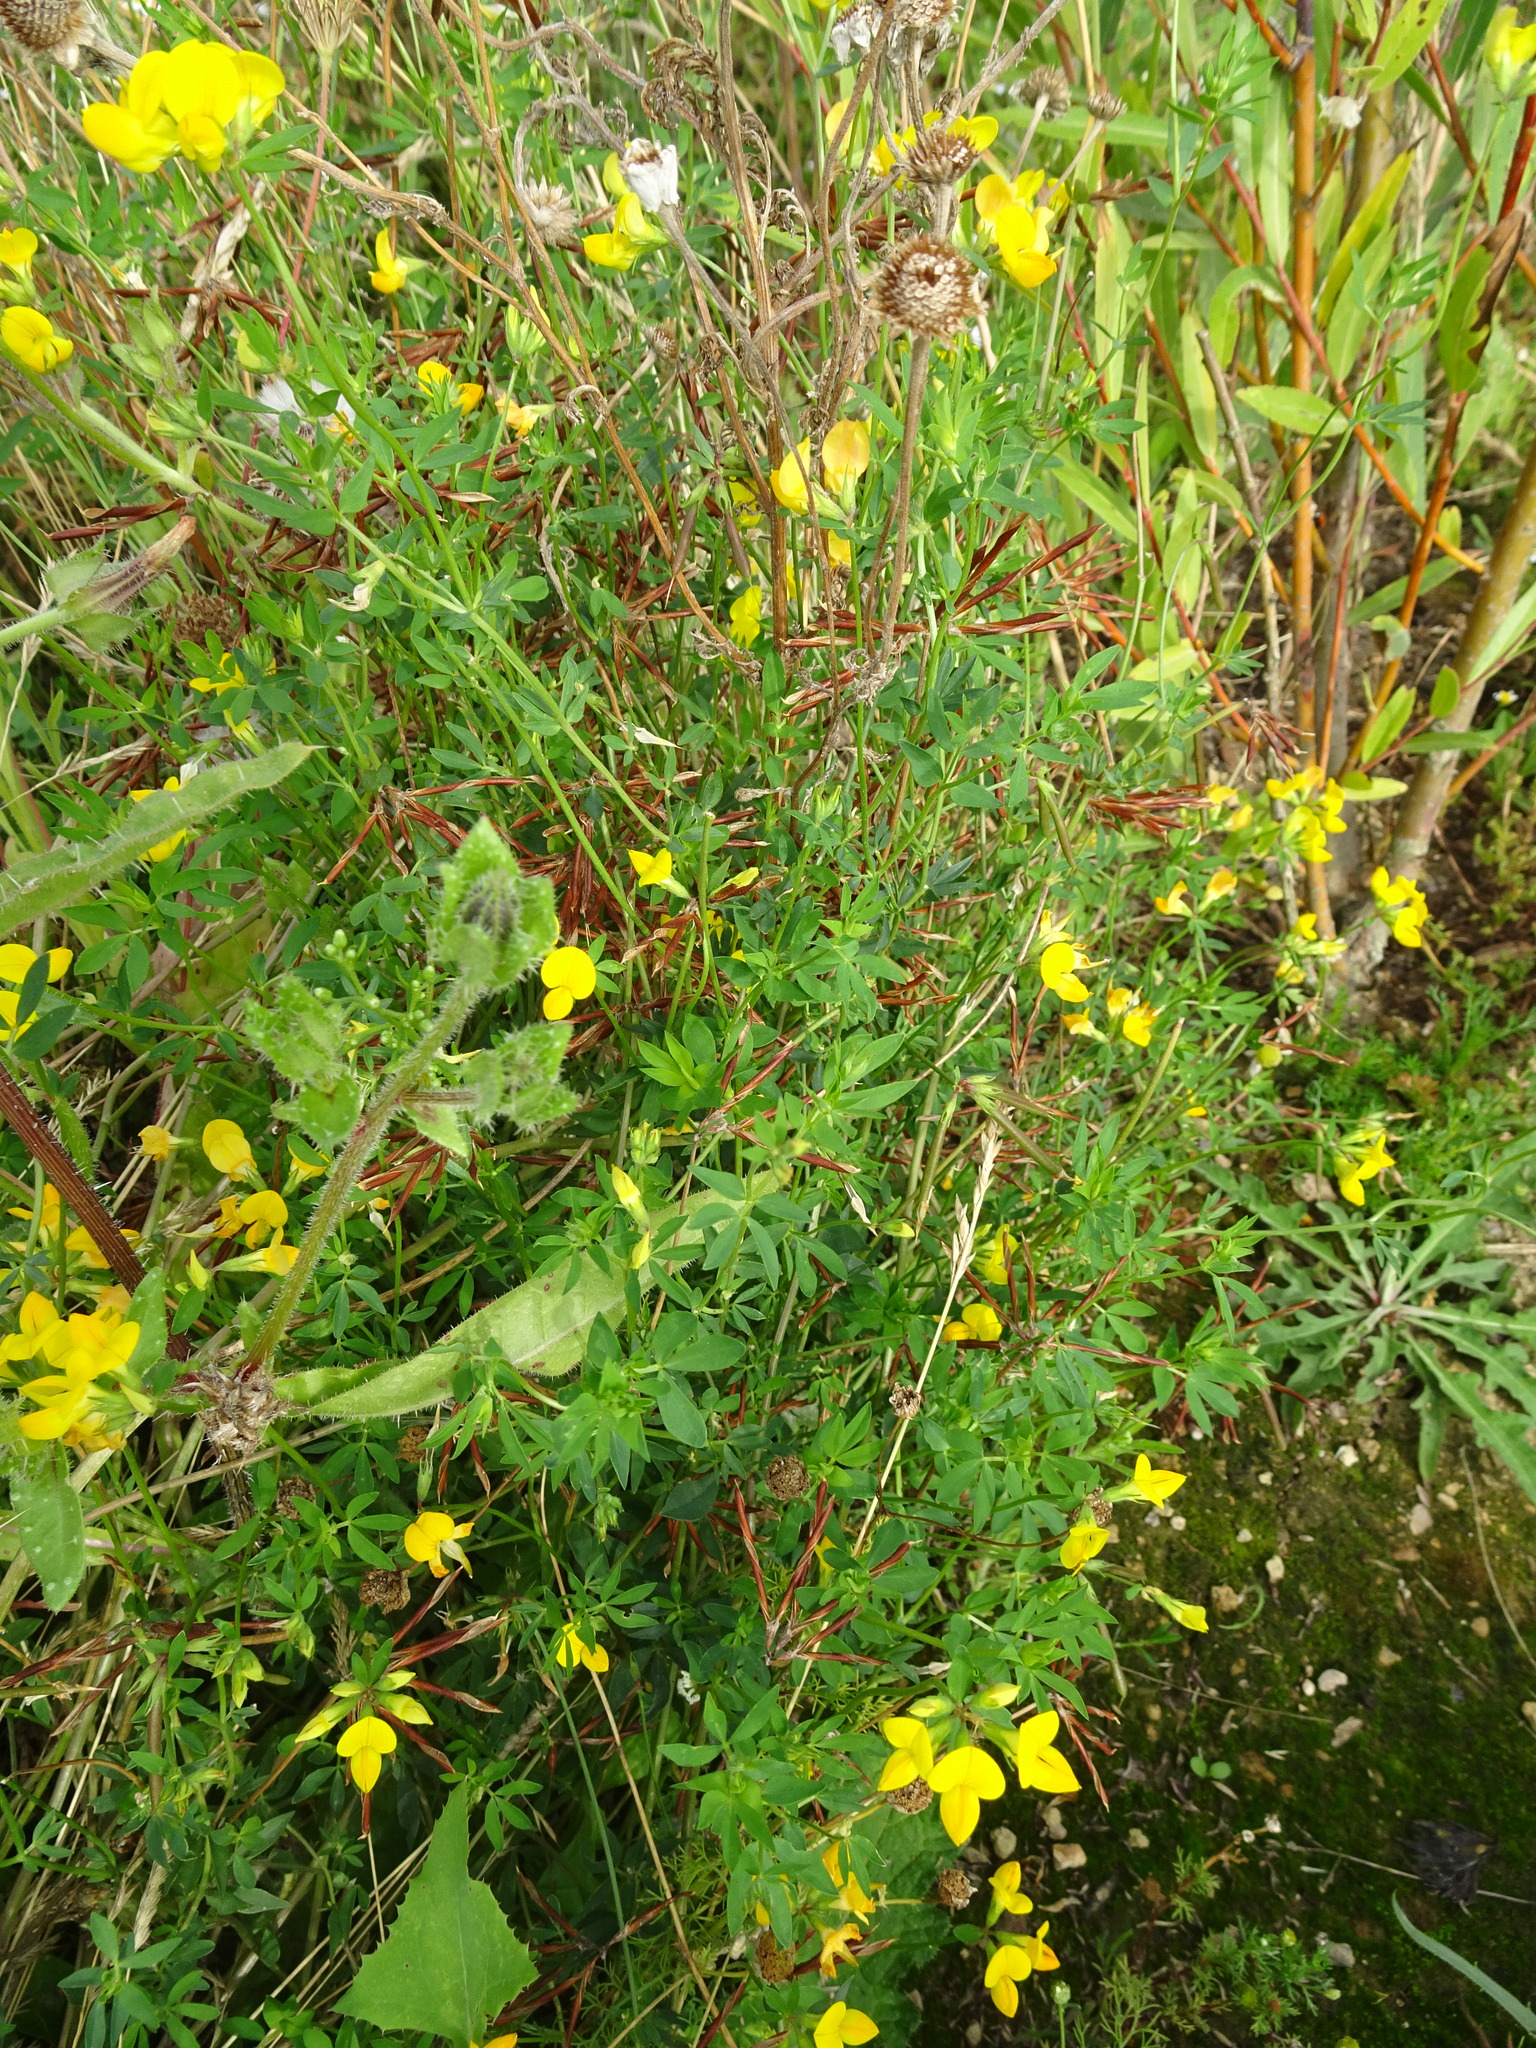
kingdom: Plantae
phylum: Tracheophyta
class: Magnoliopsida
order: Fabales
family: Fabaceae
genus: Lotus
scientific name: Lotus corniculatus
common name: Common bird's-foot-trefoil
